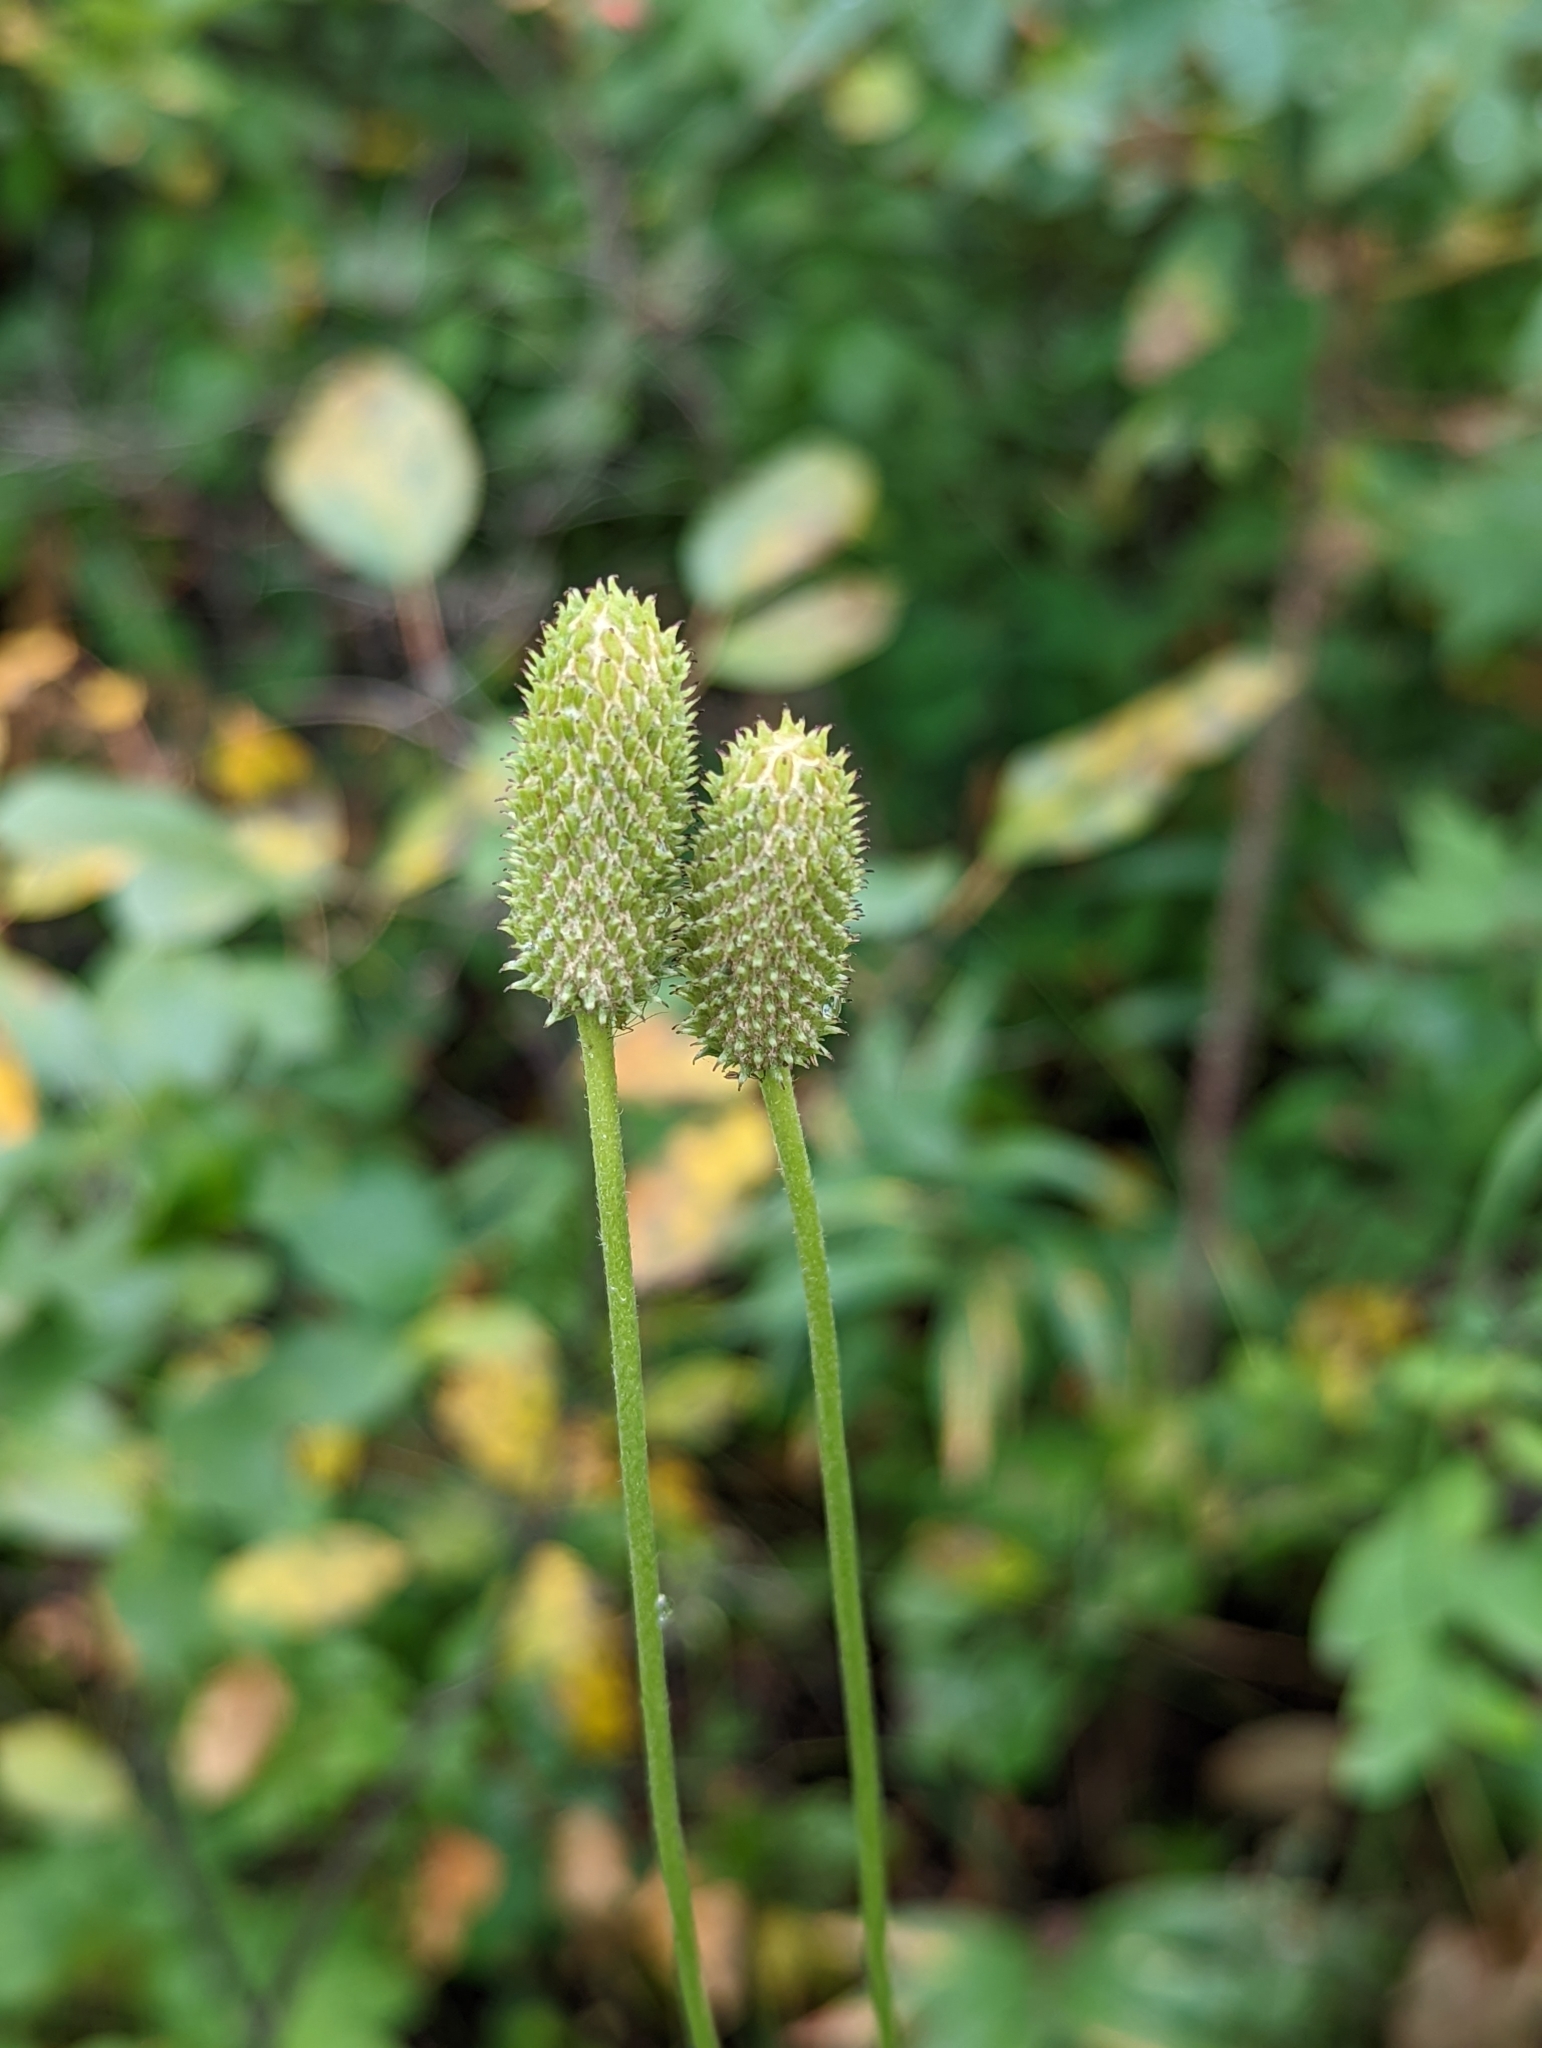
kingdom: Plantae
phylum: Tracheophyta
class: Magnoliopsida
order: Ranunculales
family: Ranunculaceae
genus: Anemone
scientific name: Anemone virginiana
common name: Tall anemone
